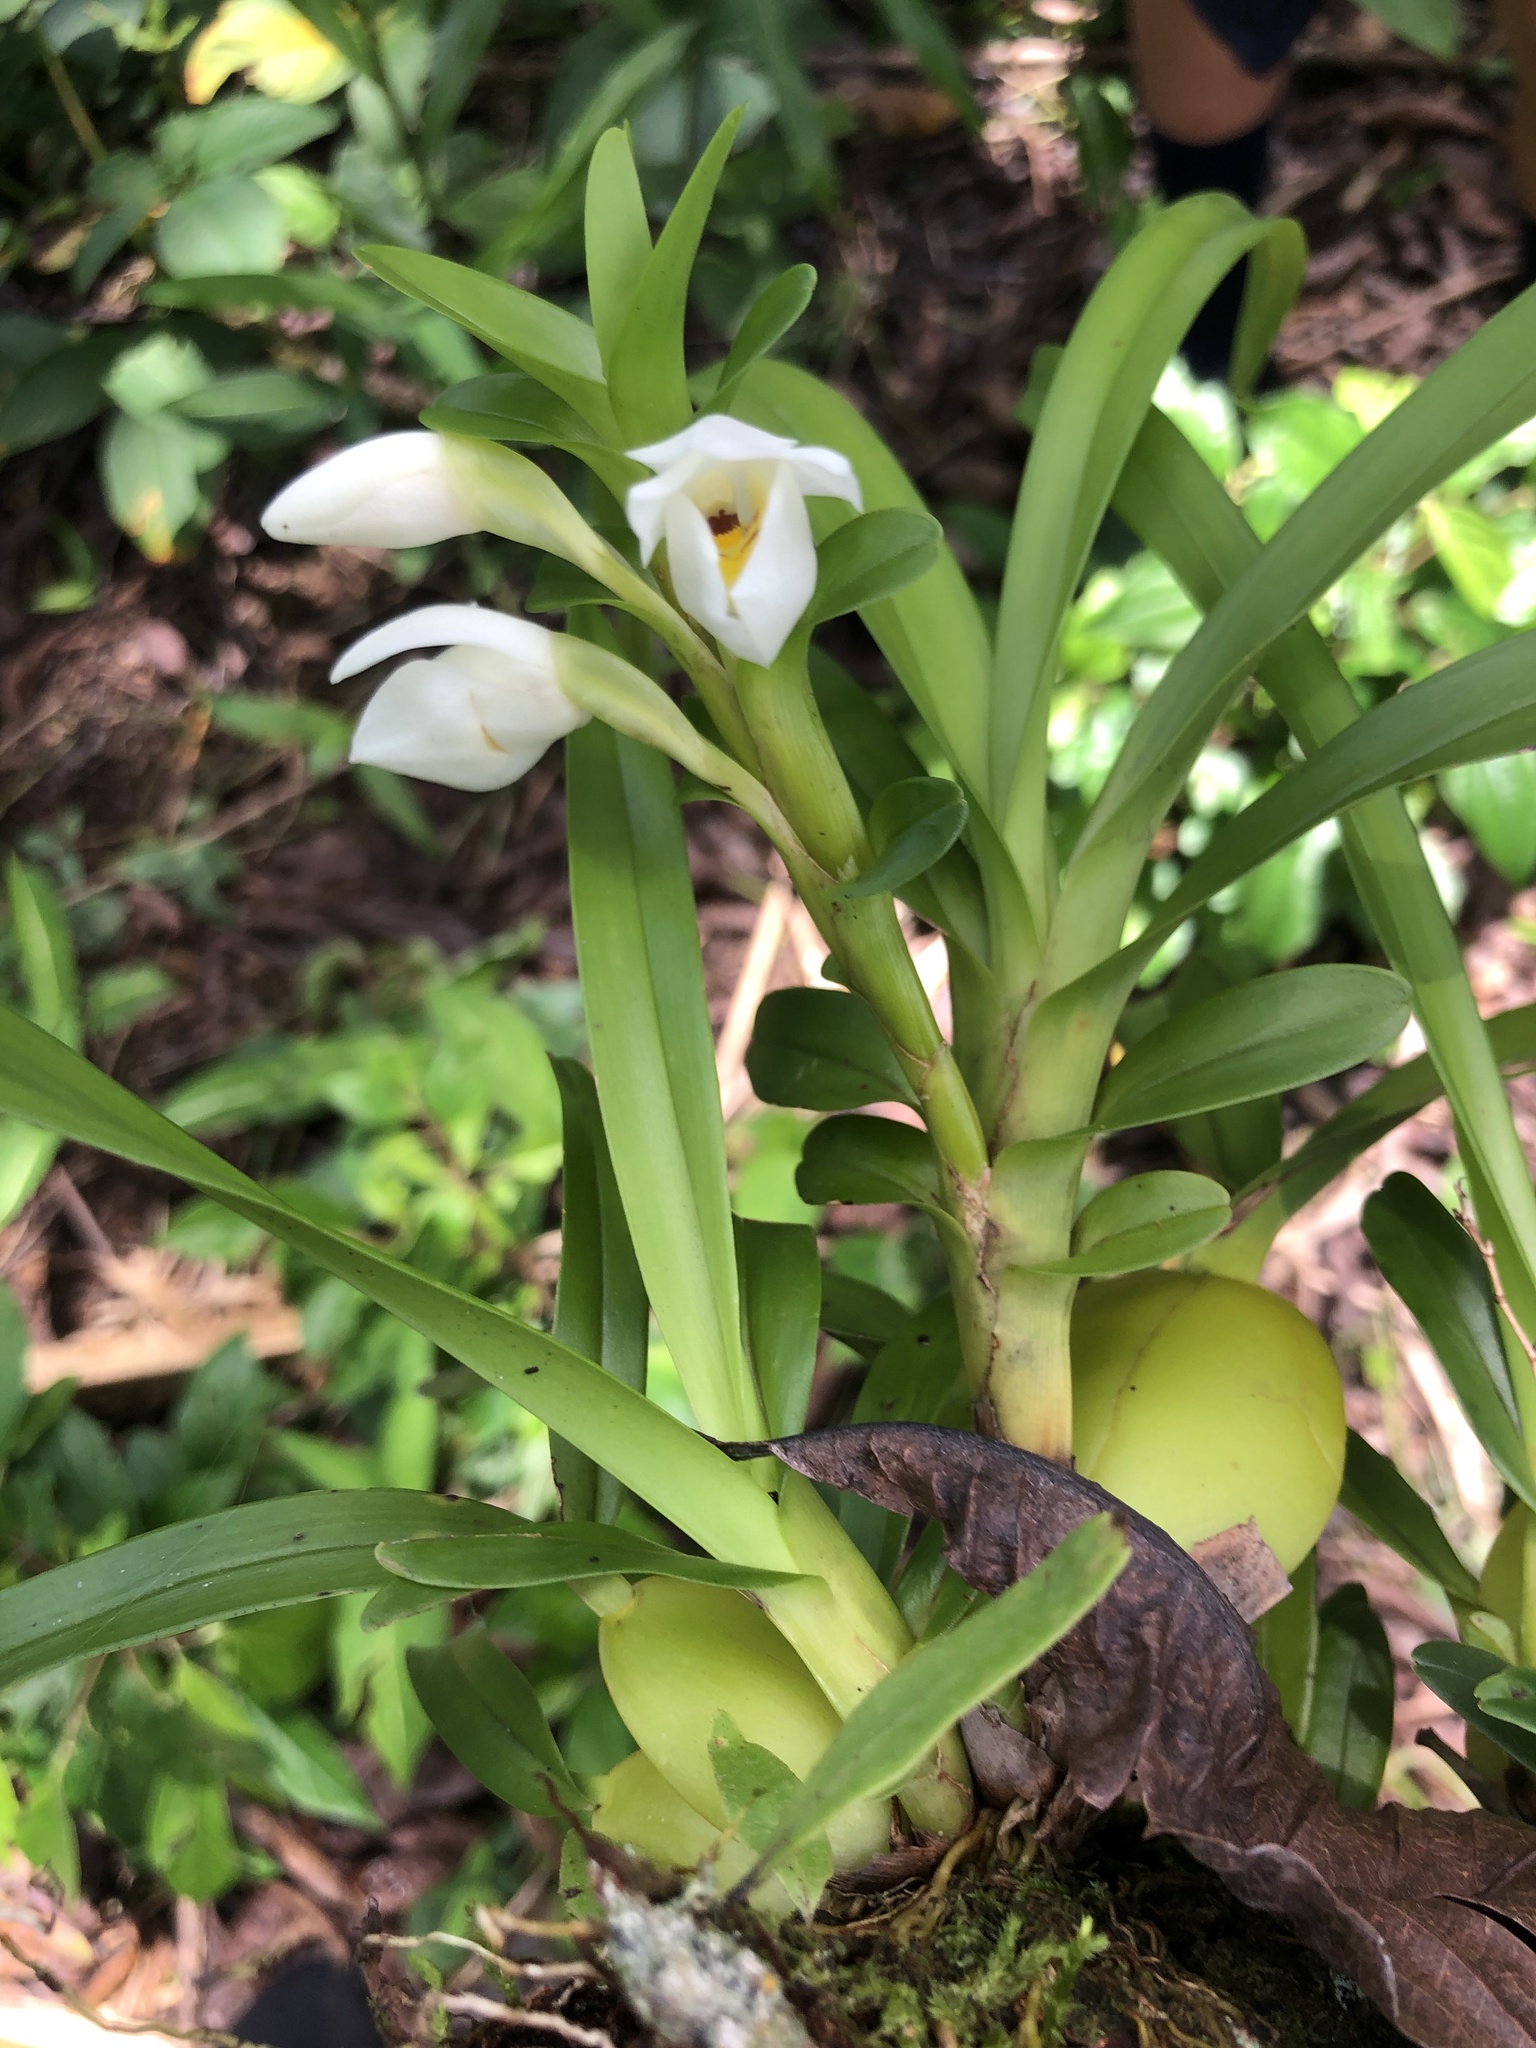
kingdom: Plantae
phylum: Tracheophyta
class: Liliopsida
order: Asparagales
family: Orchidaceae
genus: Maxillaria
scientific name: Maxillaria lutescens
